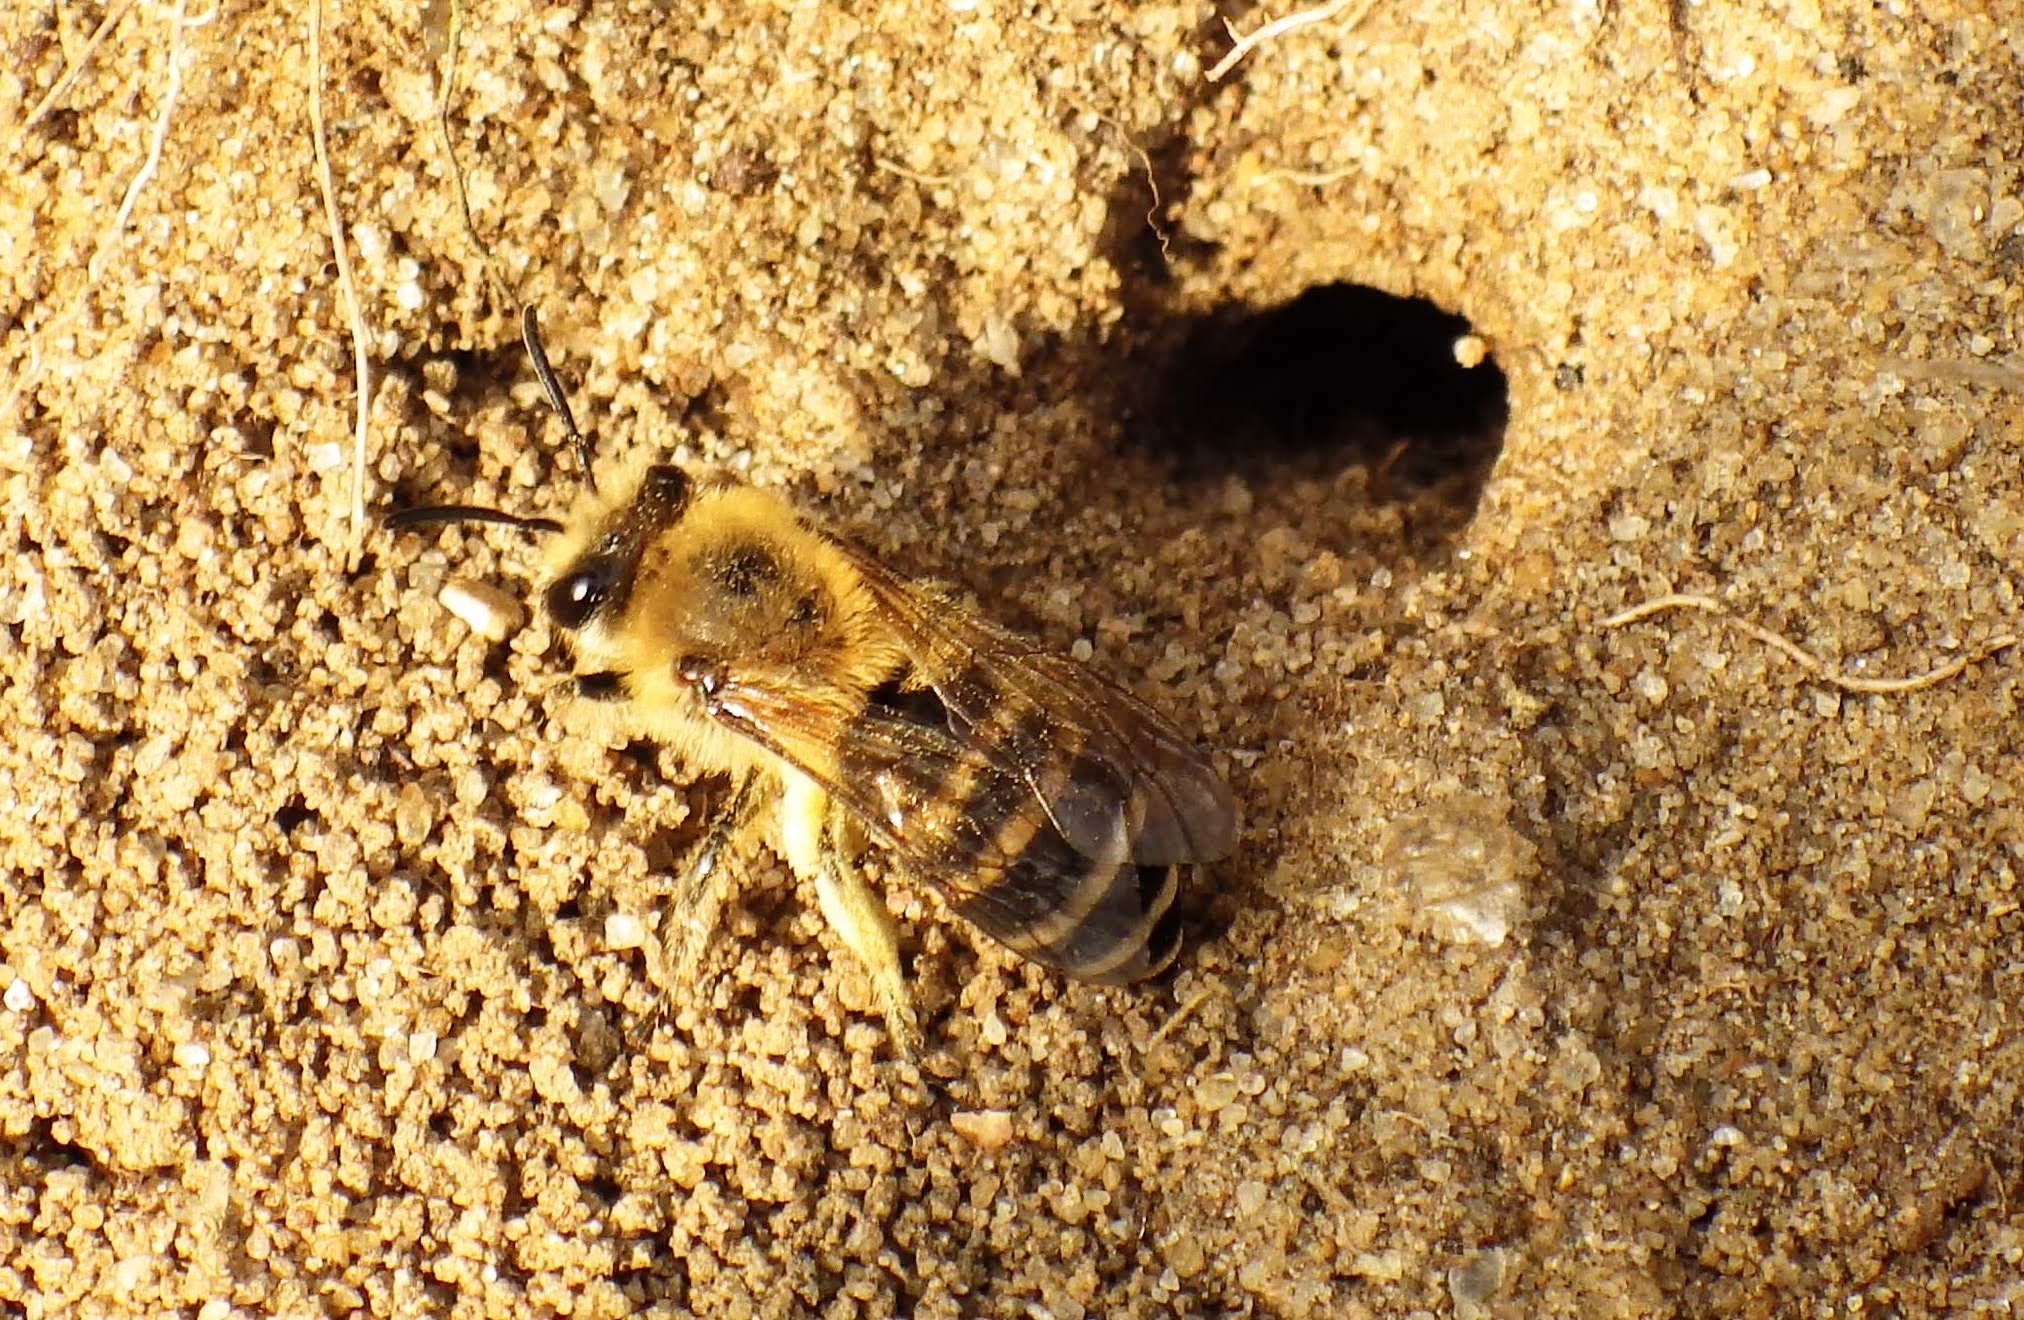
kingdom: Animalia
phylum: Arthropoda
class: Insecta
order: Hymenoptera
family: Colletidae
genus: Colletes
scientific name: Colletes hederae
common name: Ivy bee
